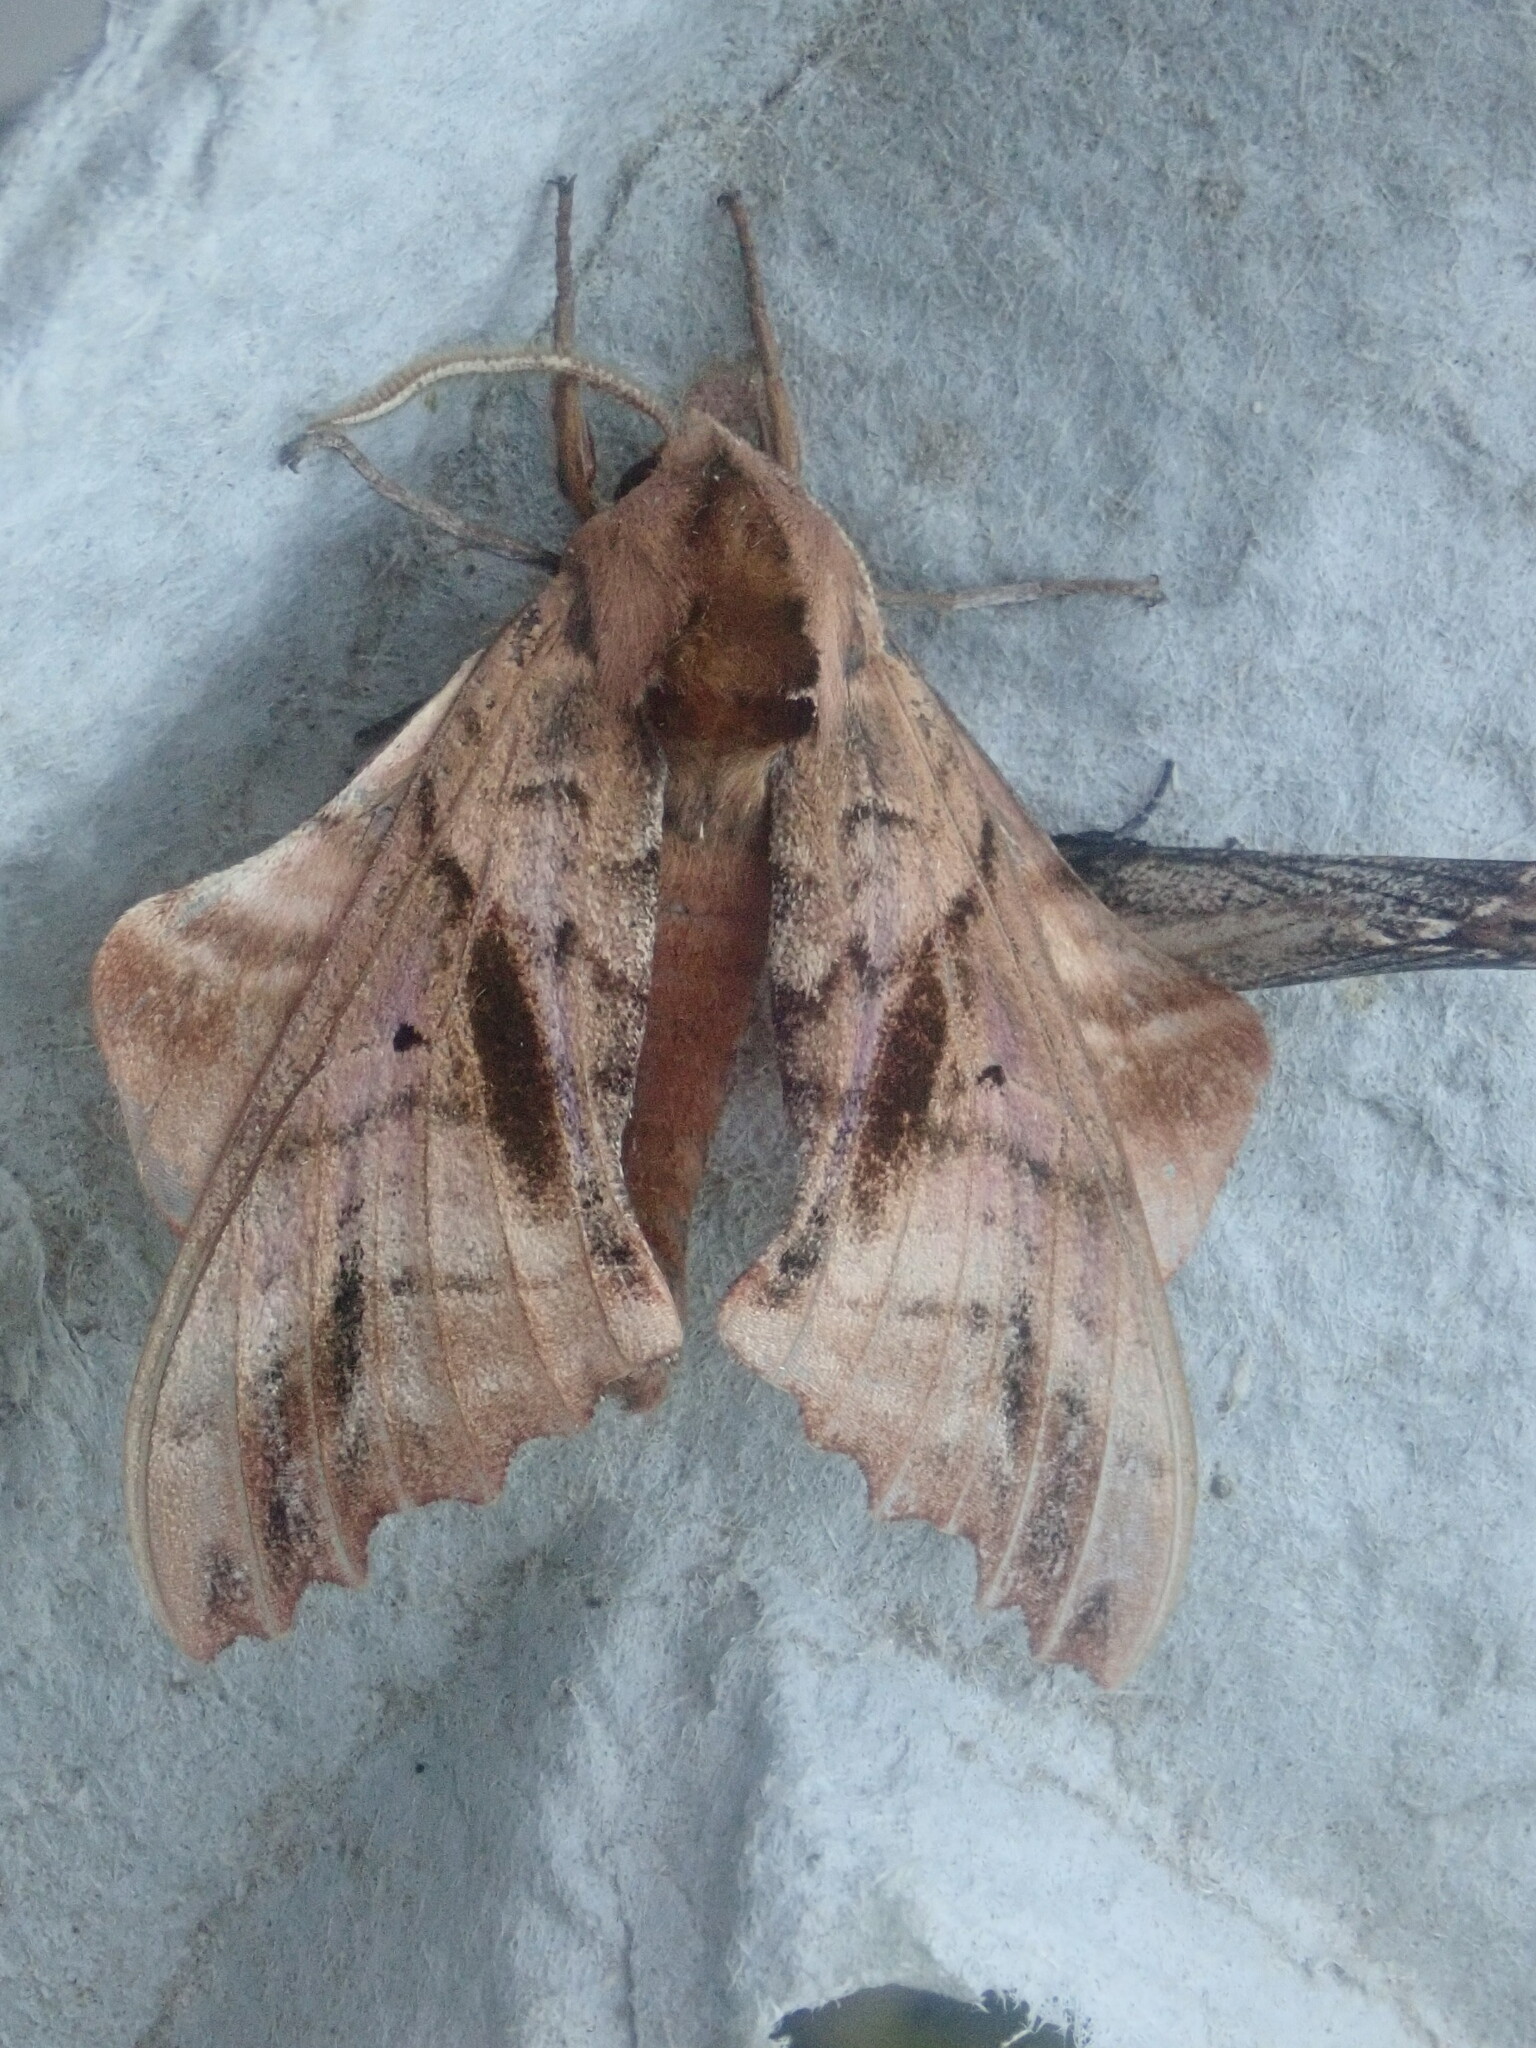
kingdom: Animalia
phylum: Arthropoda
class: Insecta
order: Lepidoptera
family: Sphingidae
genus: Paonias
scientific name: Paonias excaecata
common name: Blind-eyed sphinx
